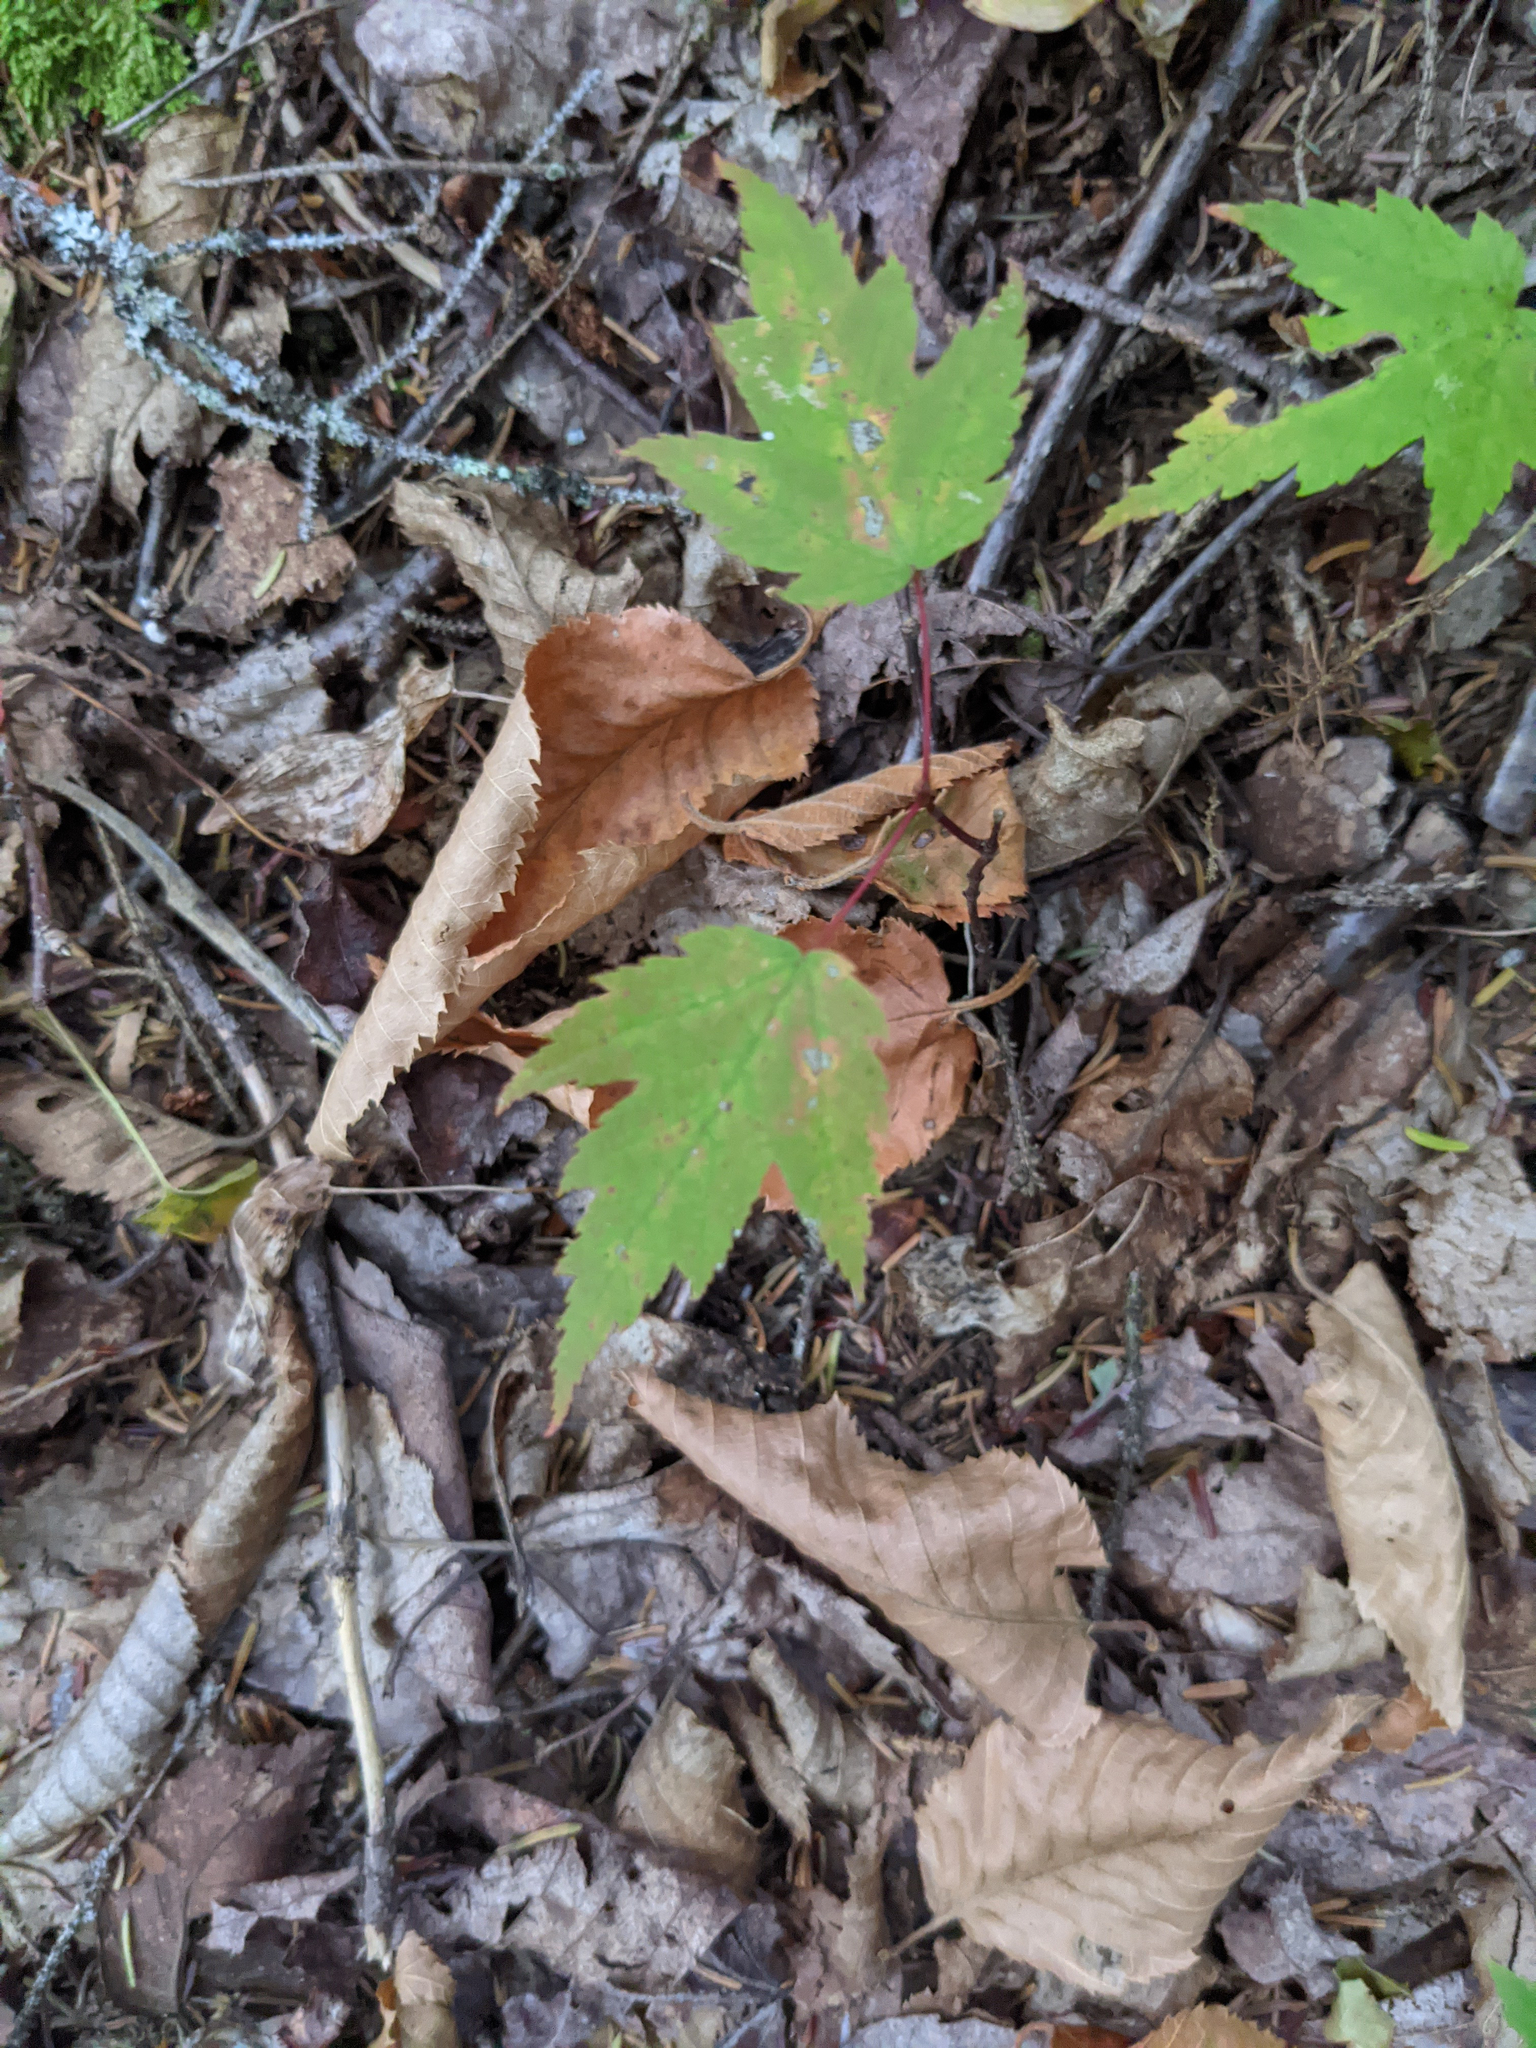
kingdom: Plantae
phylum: Tracheophyta
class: Magnoliopsida
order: Sapindales
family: Sapindaceae
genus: Acer
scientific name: Acer rubrum
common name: Red maple
